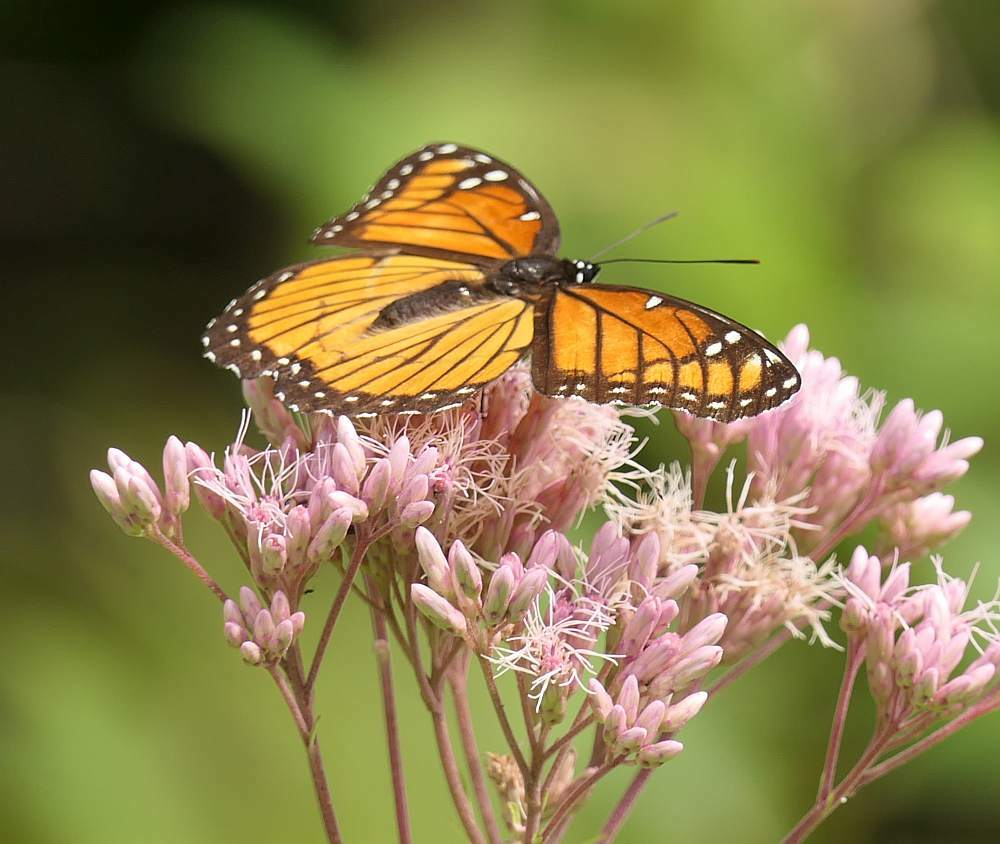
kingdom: Animalia
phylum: Arthropoda
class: Insecta
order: Lepidoptera
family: Nymphalidae
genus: Limenitis
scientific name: Limenitis archippus
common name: Viceroy
